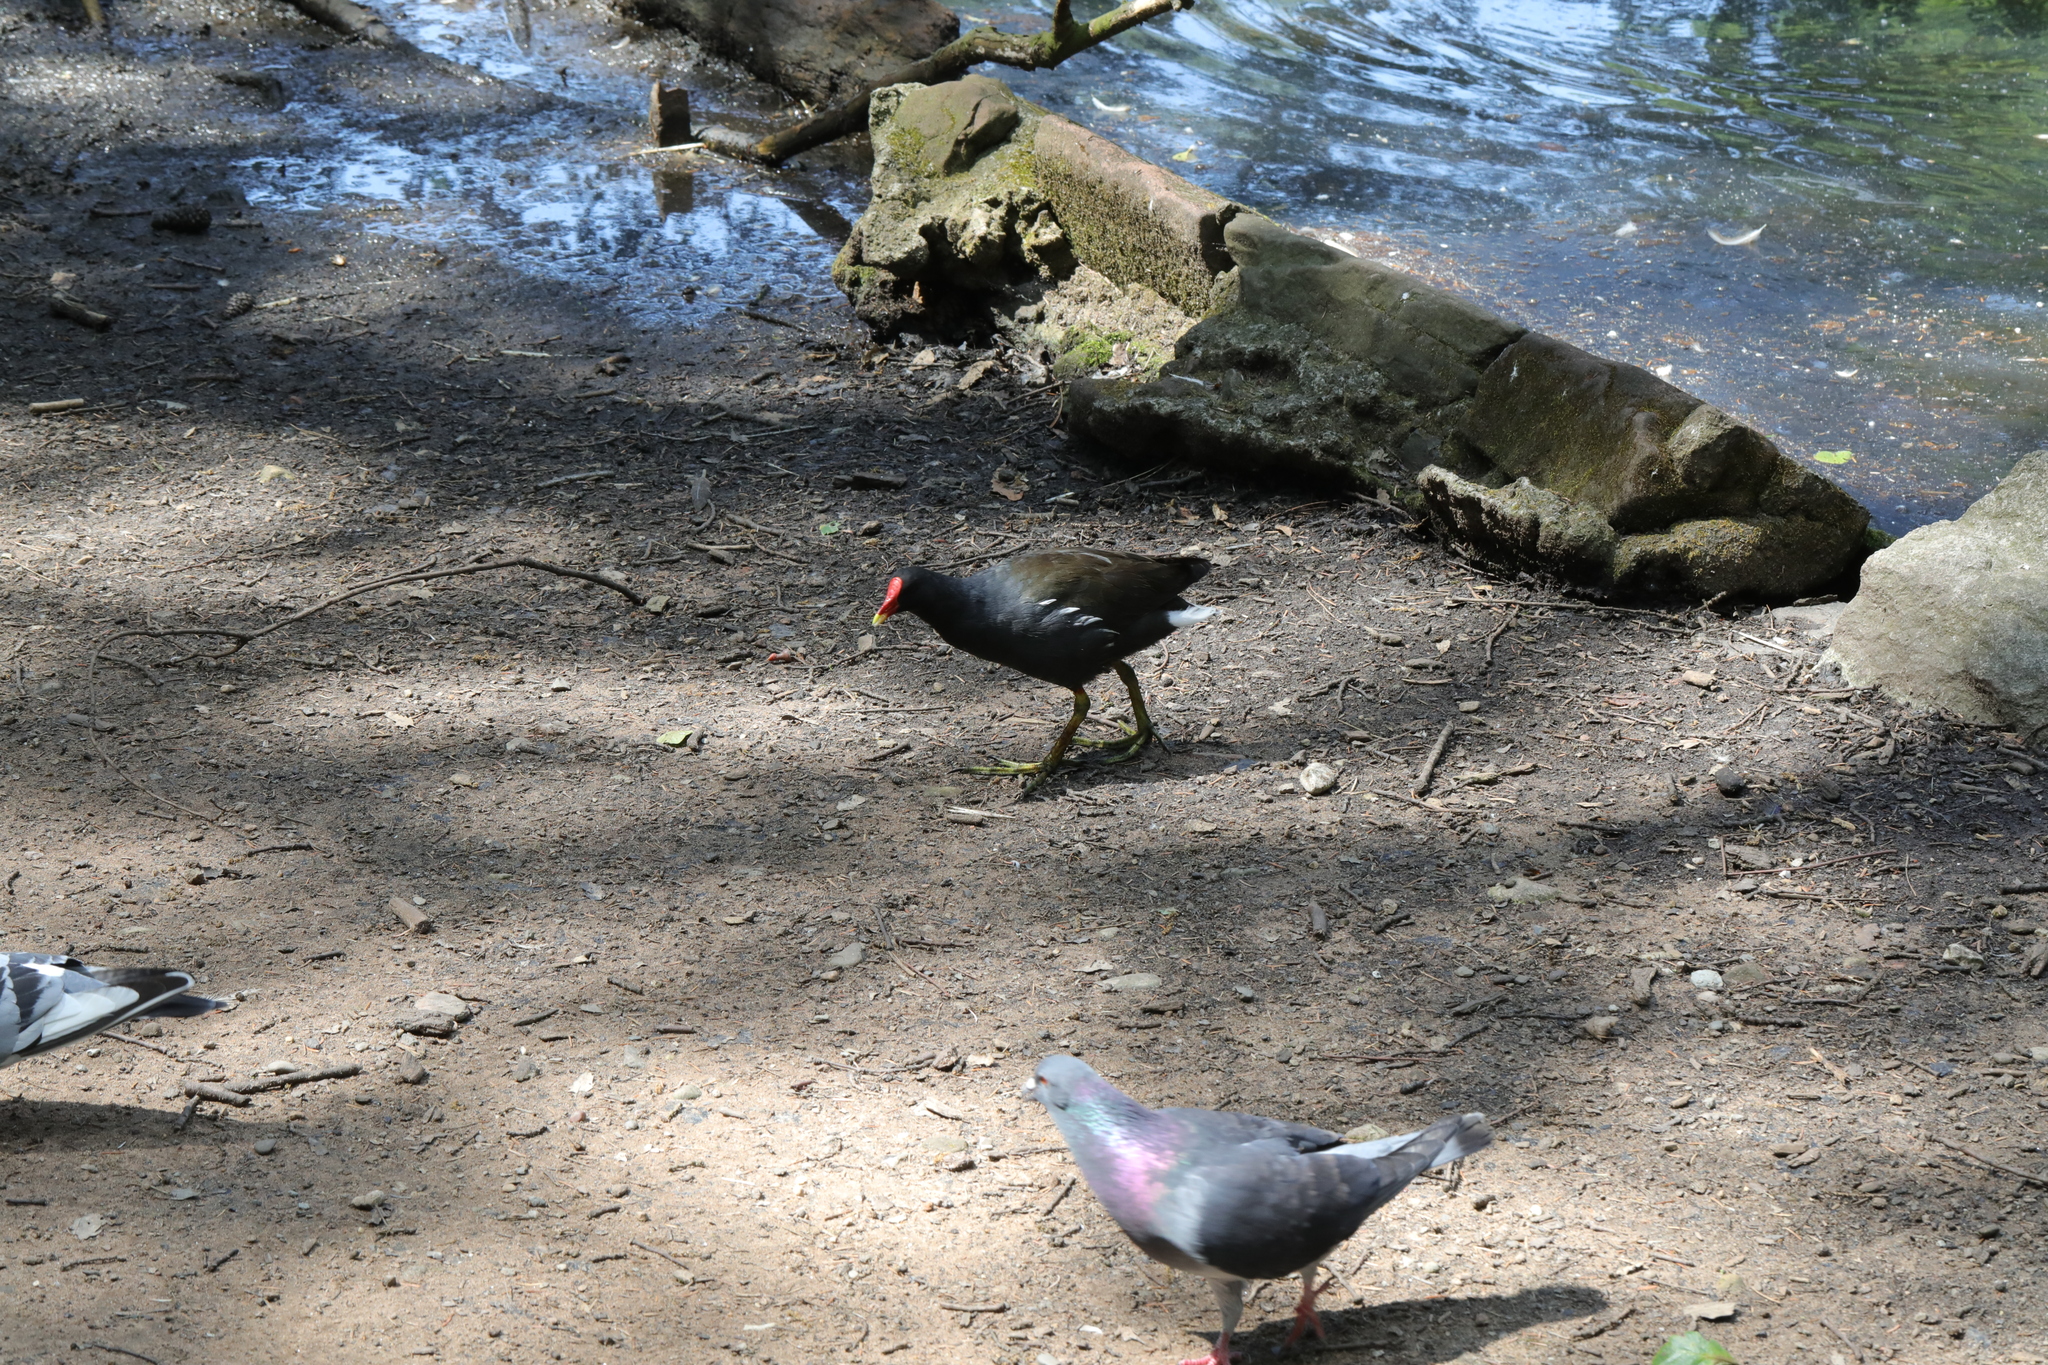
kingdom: Animalia
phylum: Chordata
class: Aves
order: Gruiformes
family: Rallidae
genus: Gallinula
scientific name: Gallinula chloropus
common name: Common moorhen
